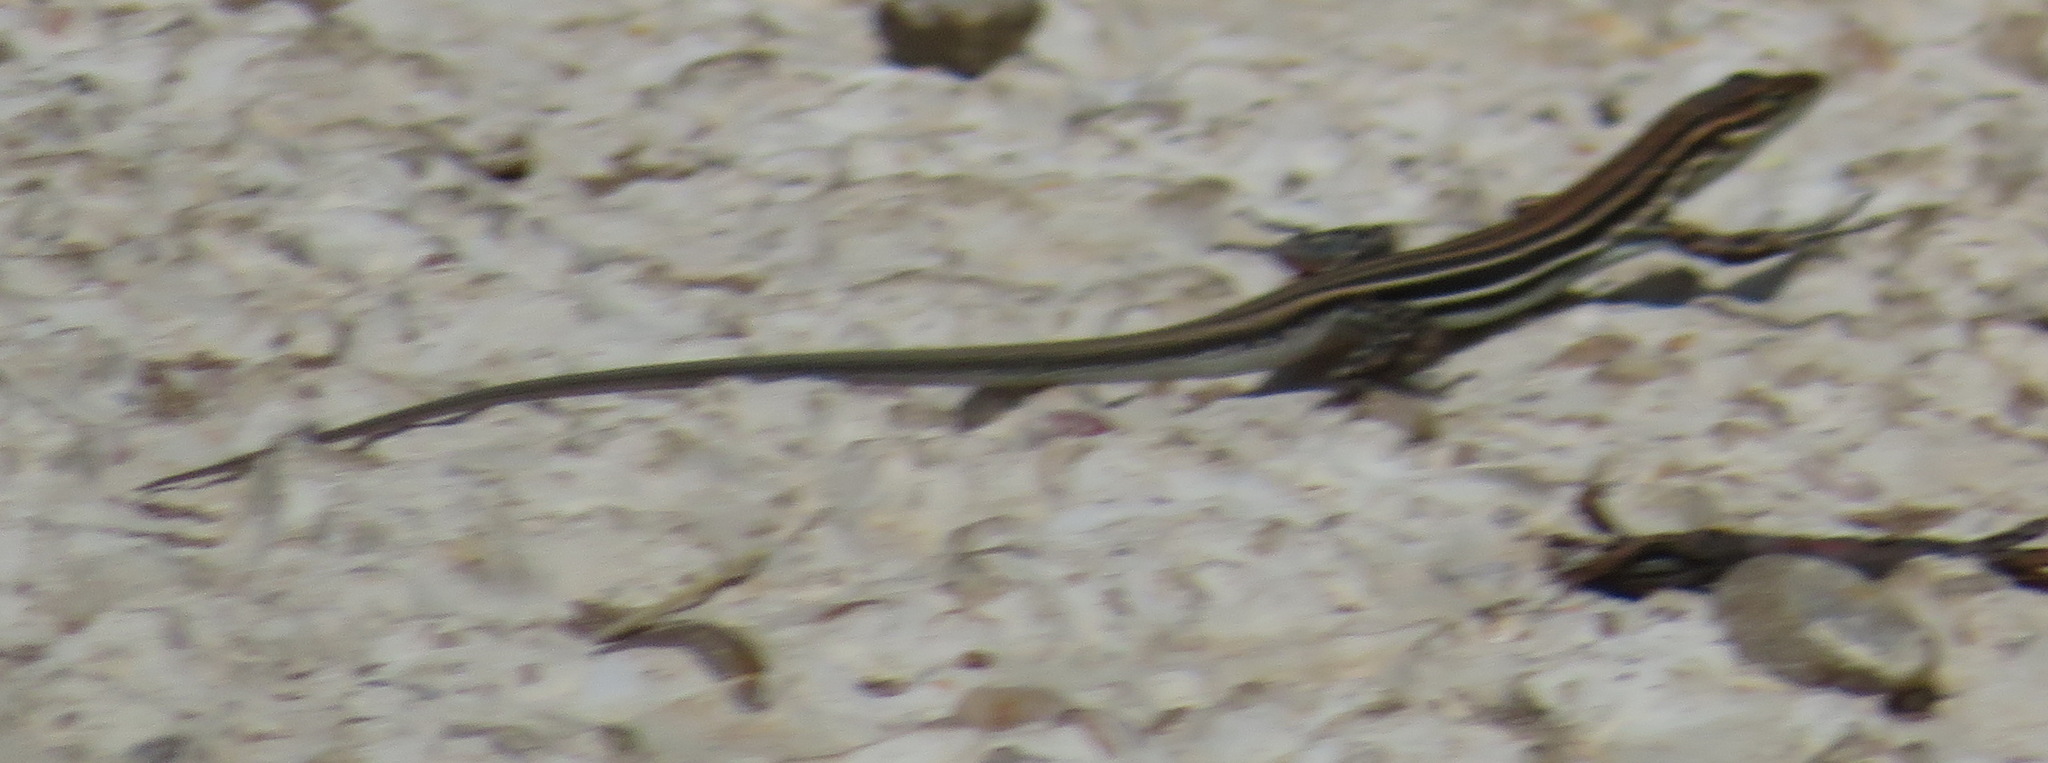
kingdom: Animalia
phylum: Chordata
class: Squamata
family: Lacertidae
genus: Pedioplanis
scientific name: Pedioplanis burchelli
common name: Burchell's sand lizard
